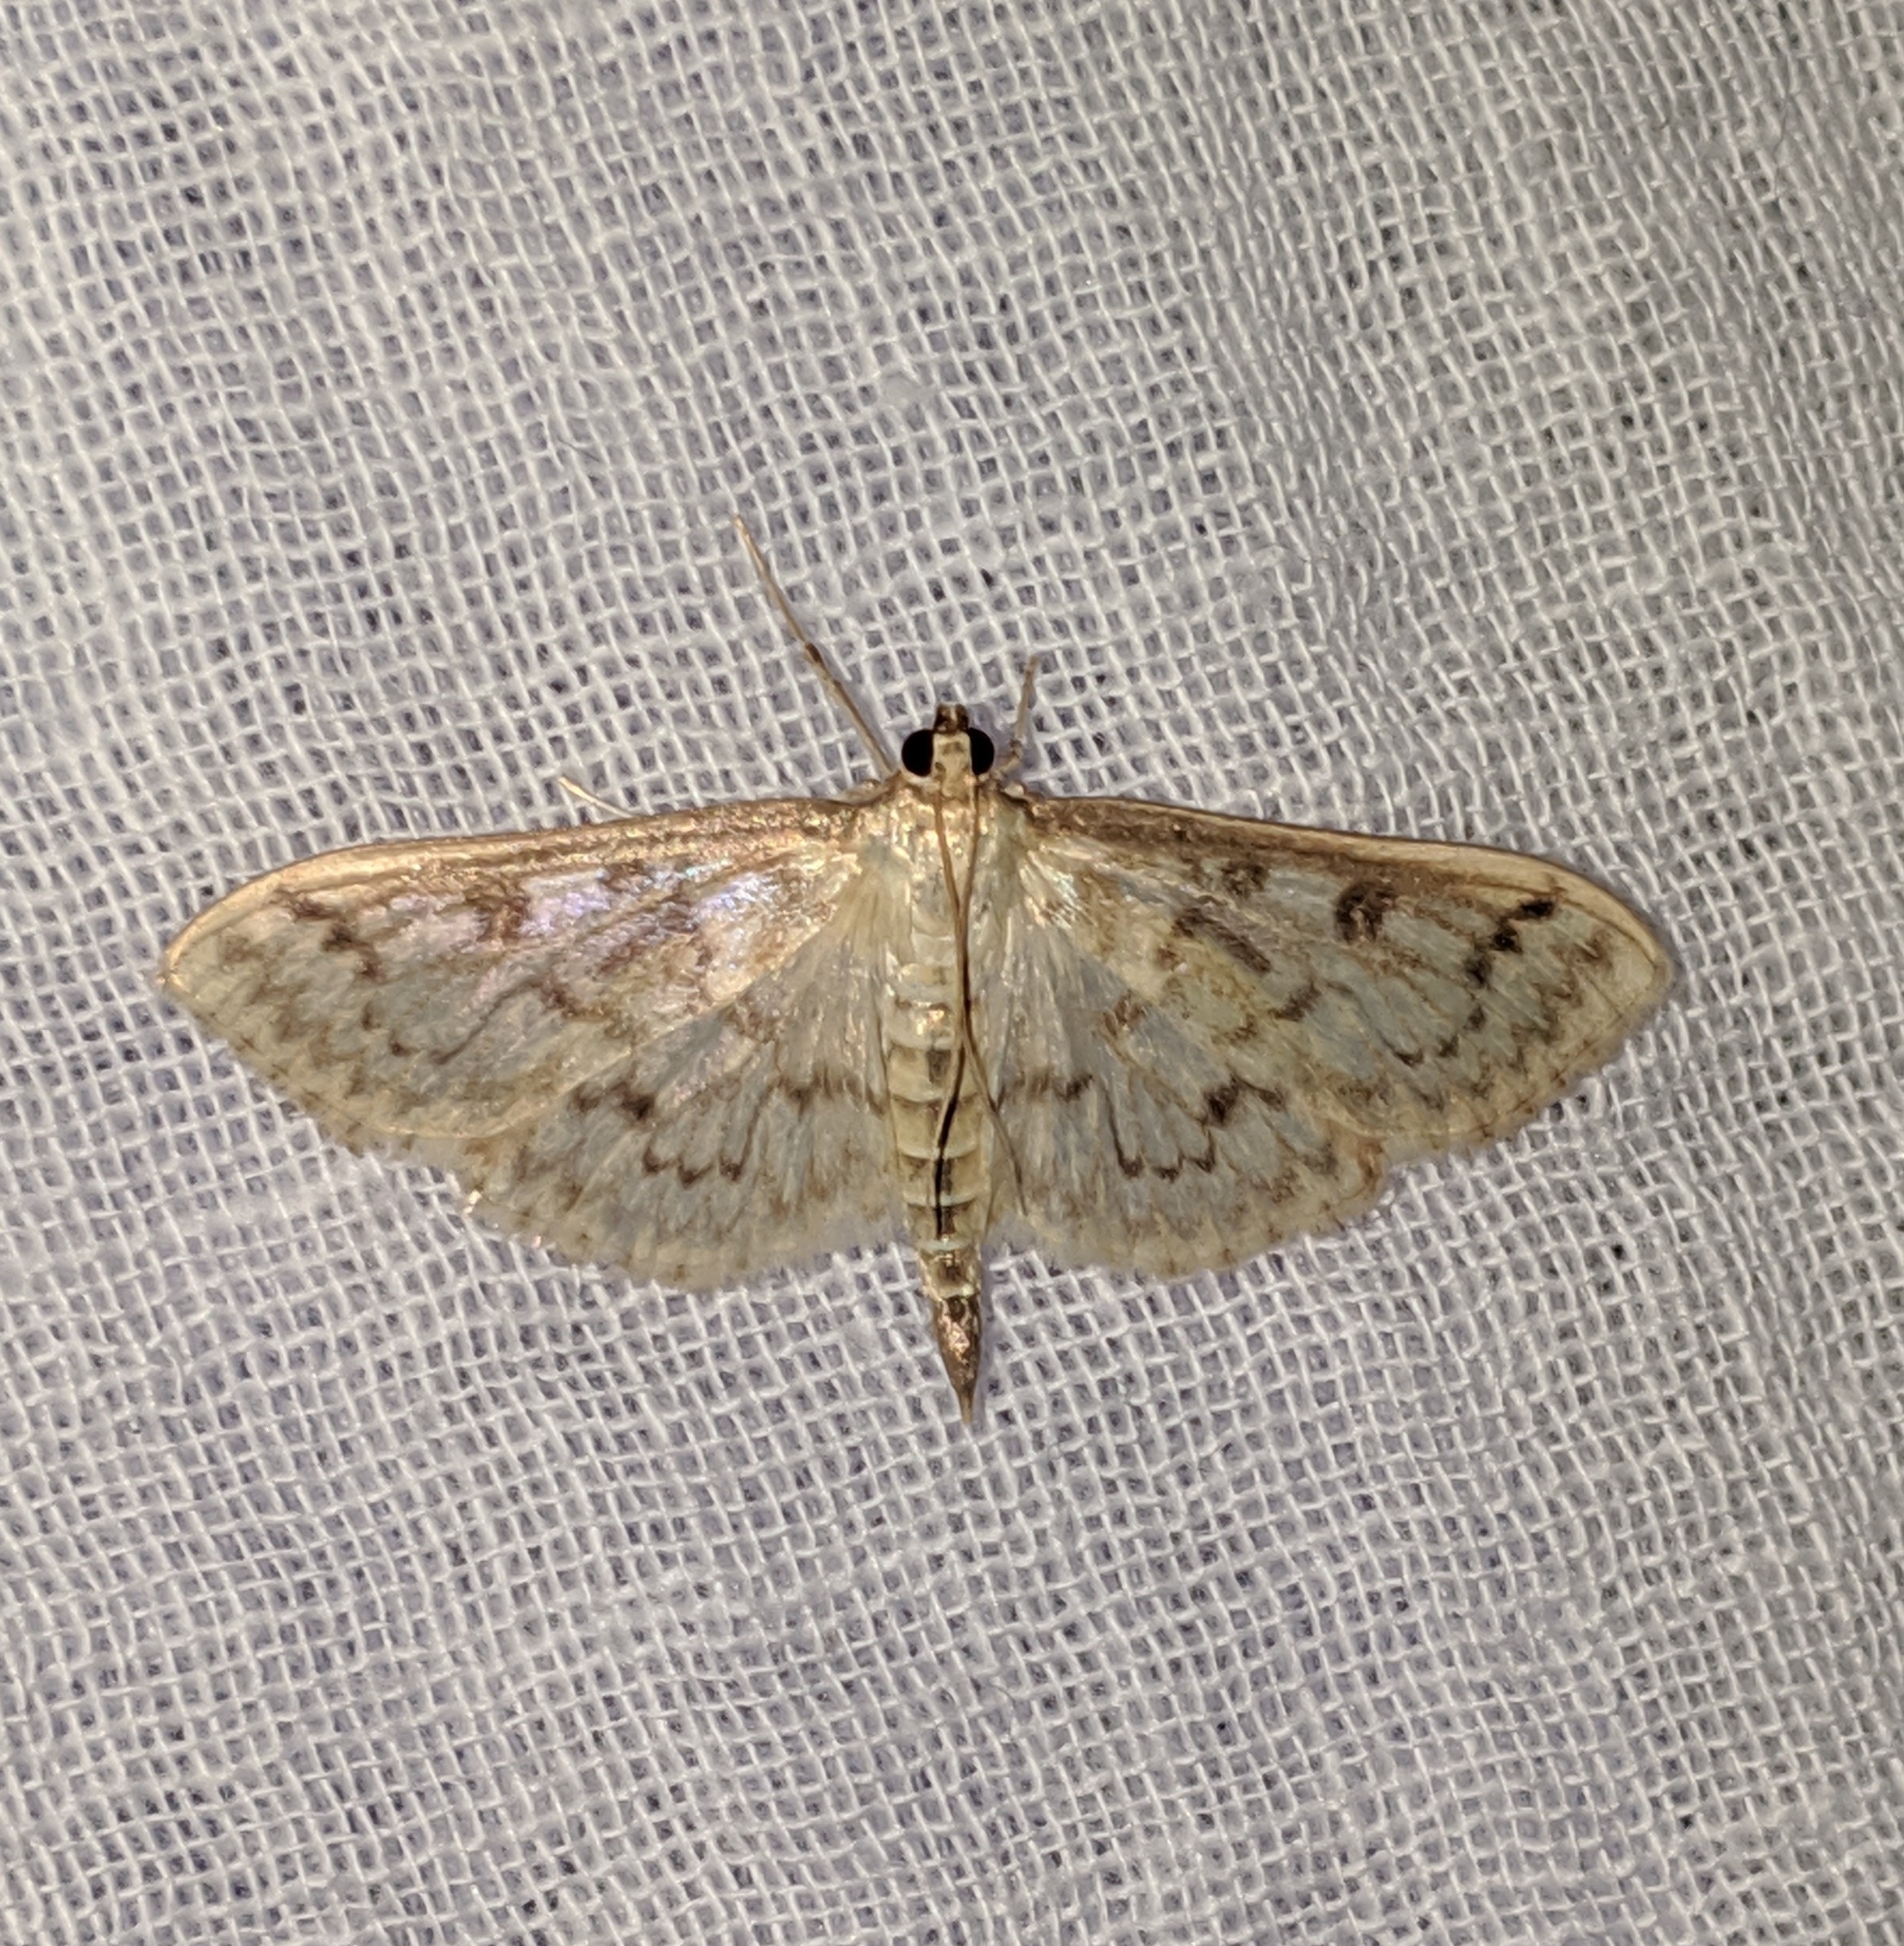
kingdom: Animalia
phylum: Arthropoda
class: Insecta
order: Lepidoptera
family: Crambidae
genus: Herpetogramma
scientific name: Herpetogramma aquilonalis
